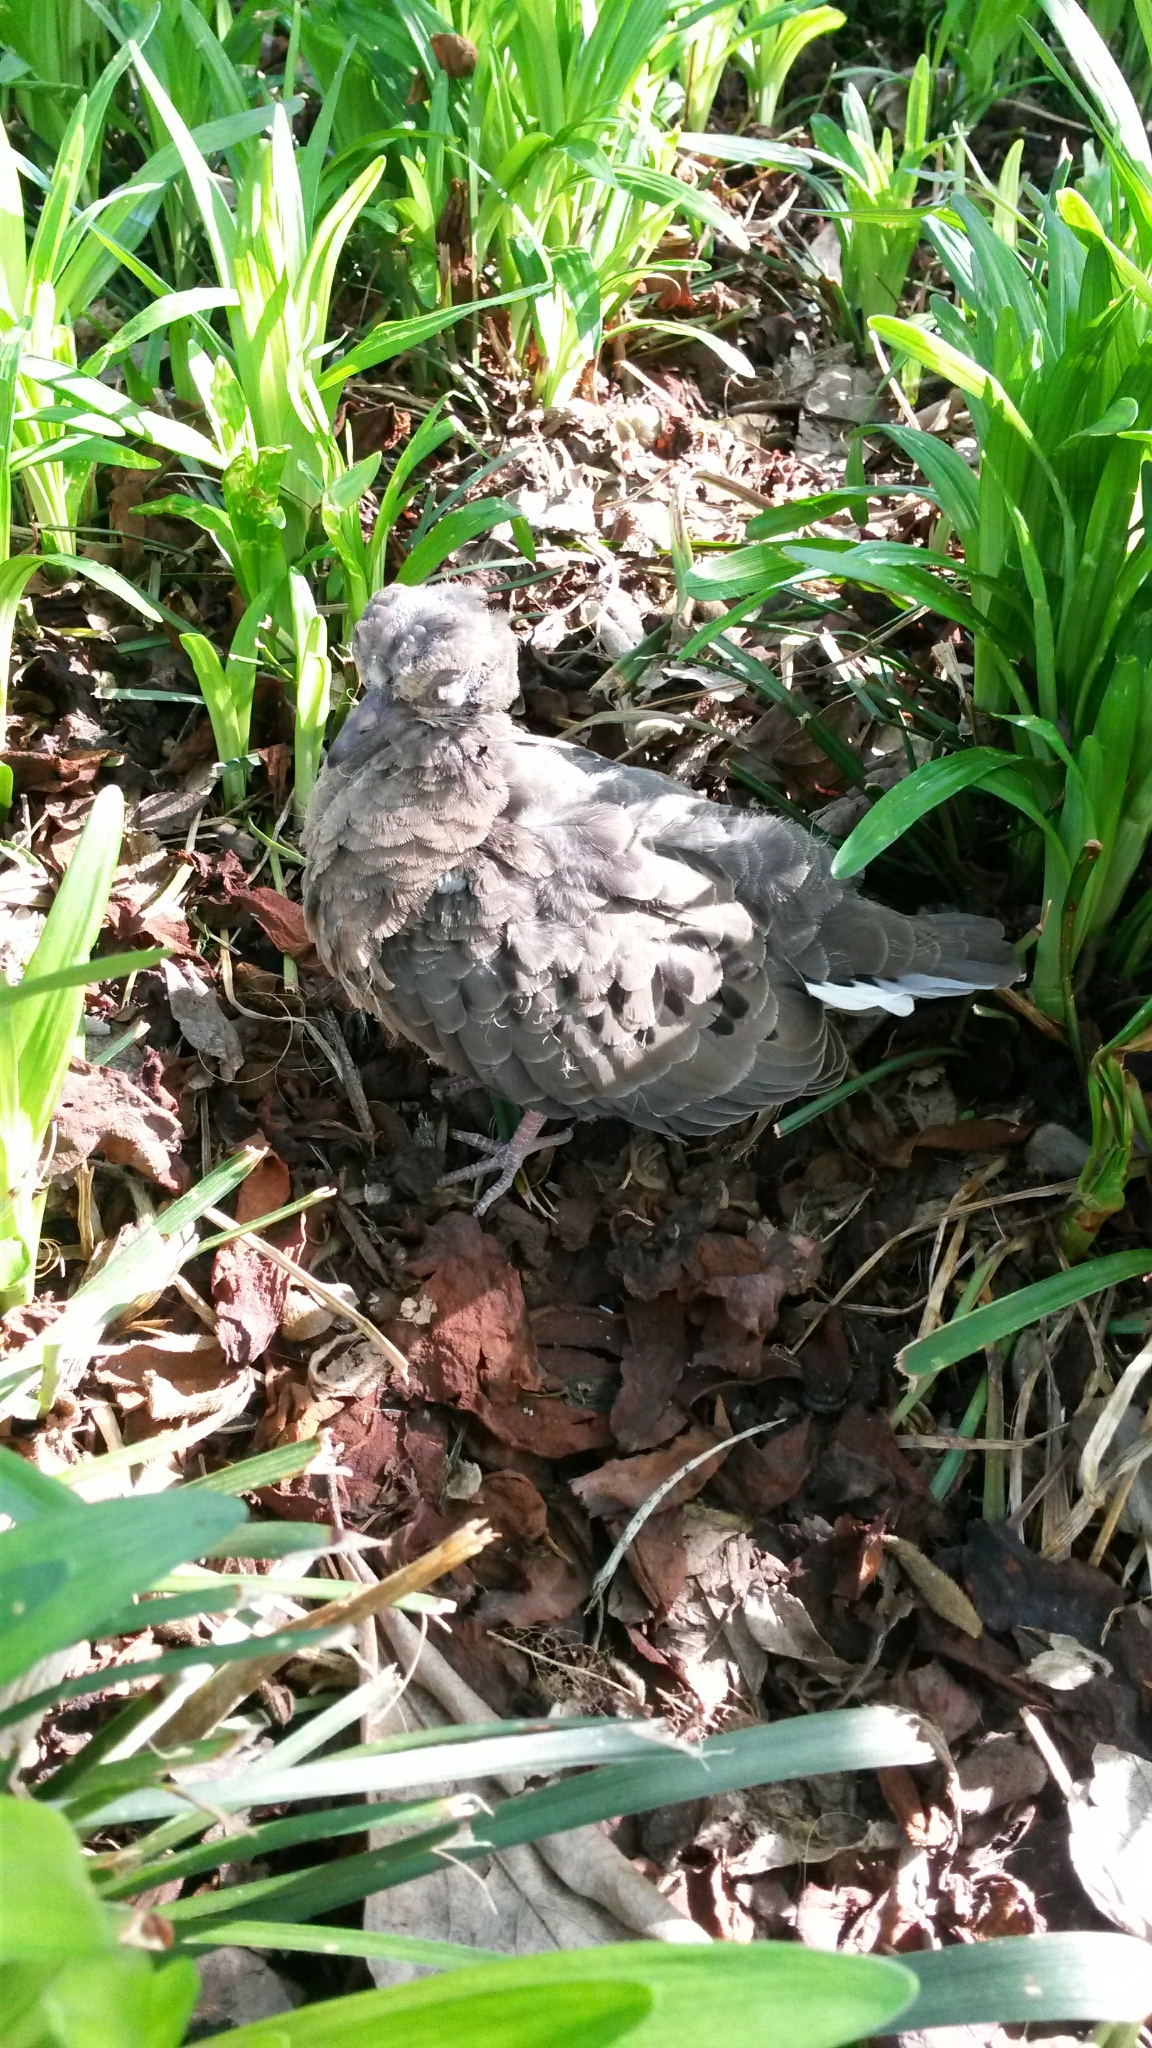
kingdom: Animalia
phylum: Chordata
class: Aves
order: Columbiformes
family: Columbidae
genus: Zenaida
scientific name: Zenaida macroura
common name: Mourning dove
